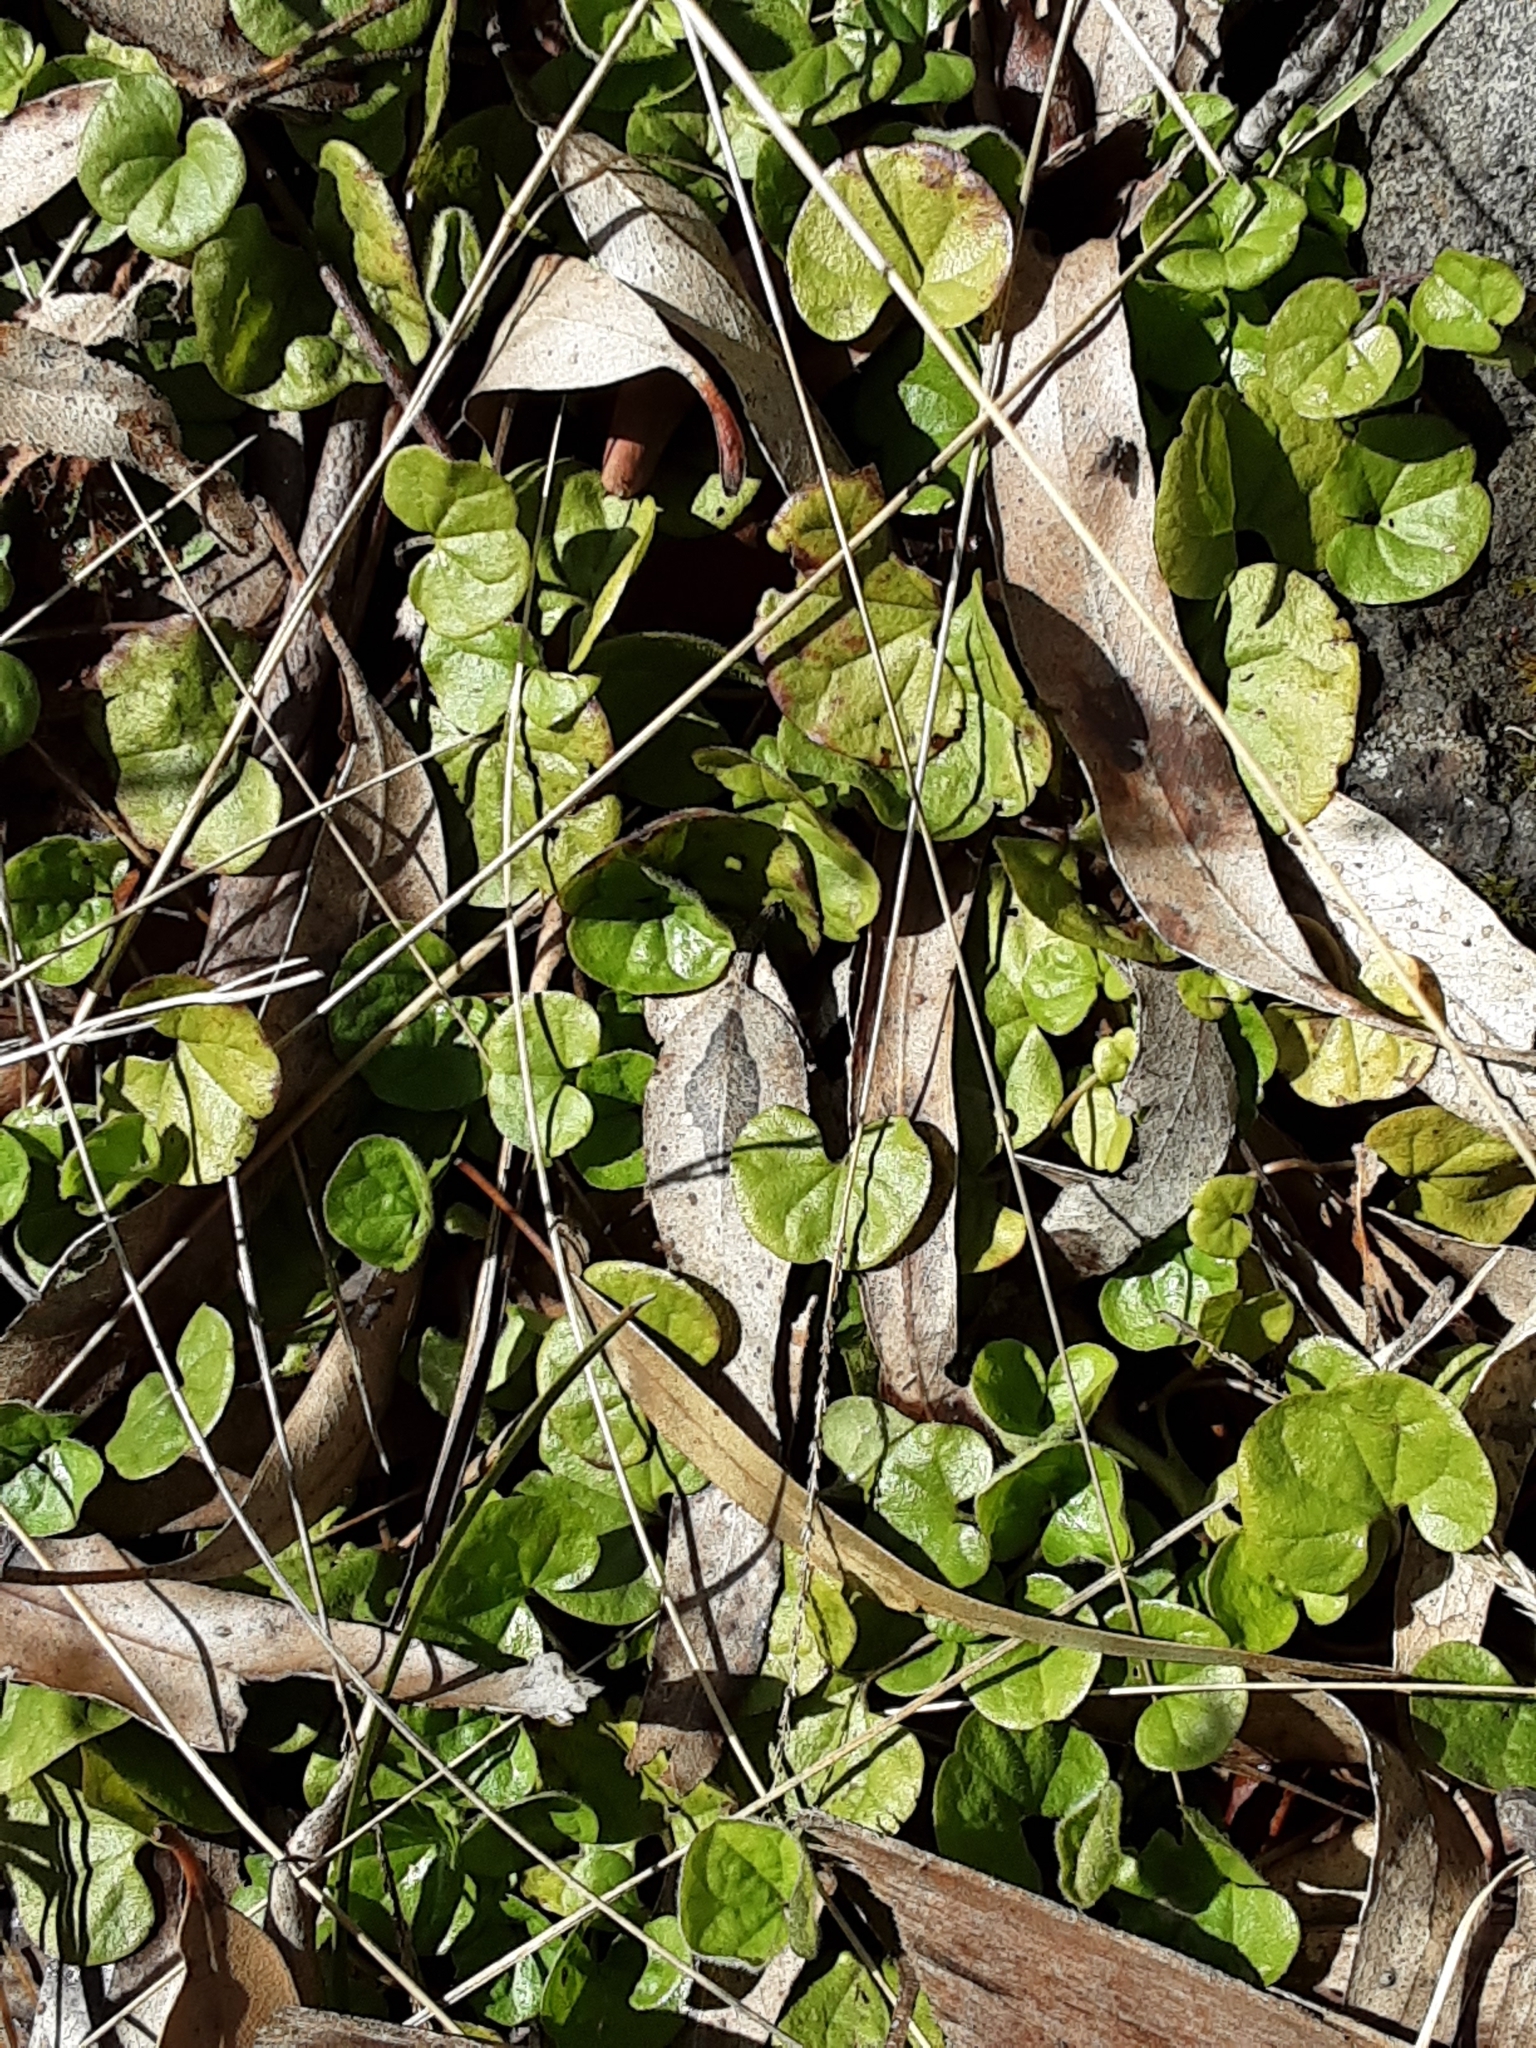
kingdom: Plantae
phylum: Tracheophyta
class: Magnoliopsida
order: Solanales
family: Convolvulaceae
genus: Dichondra
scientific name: Dichondra repens
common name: Kidneyweed
